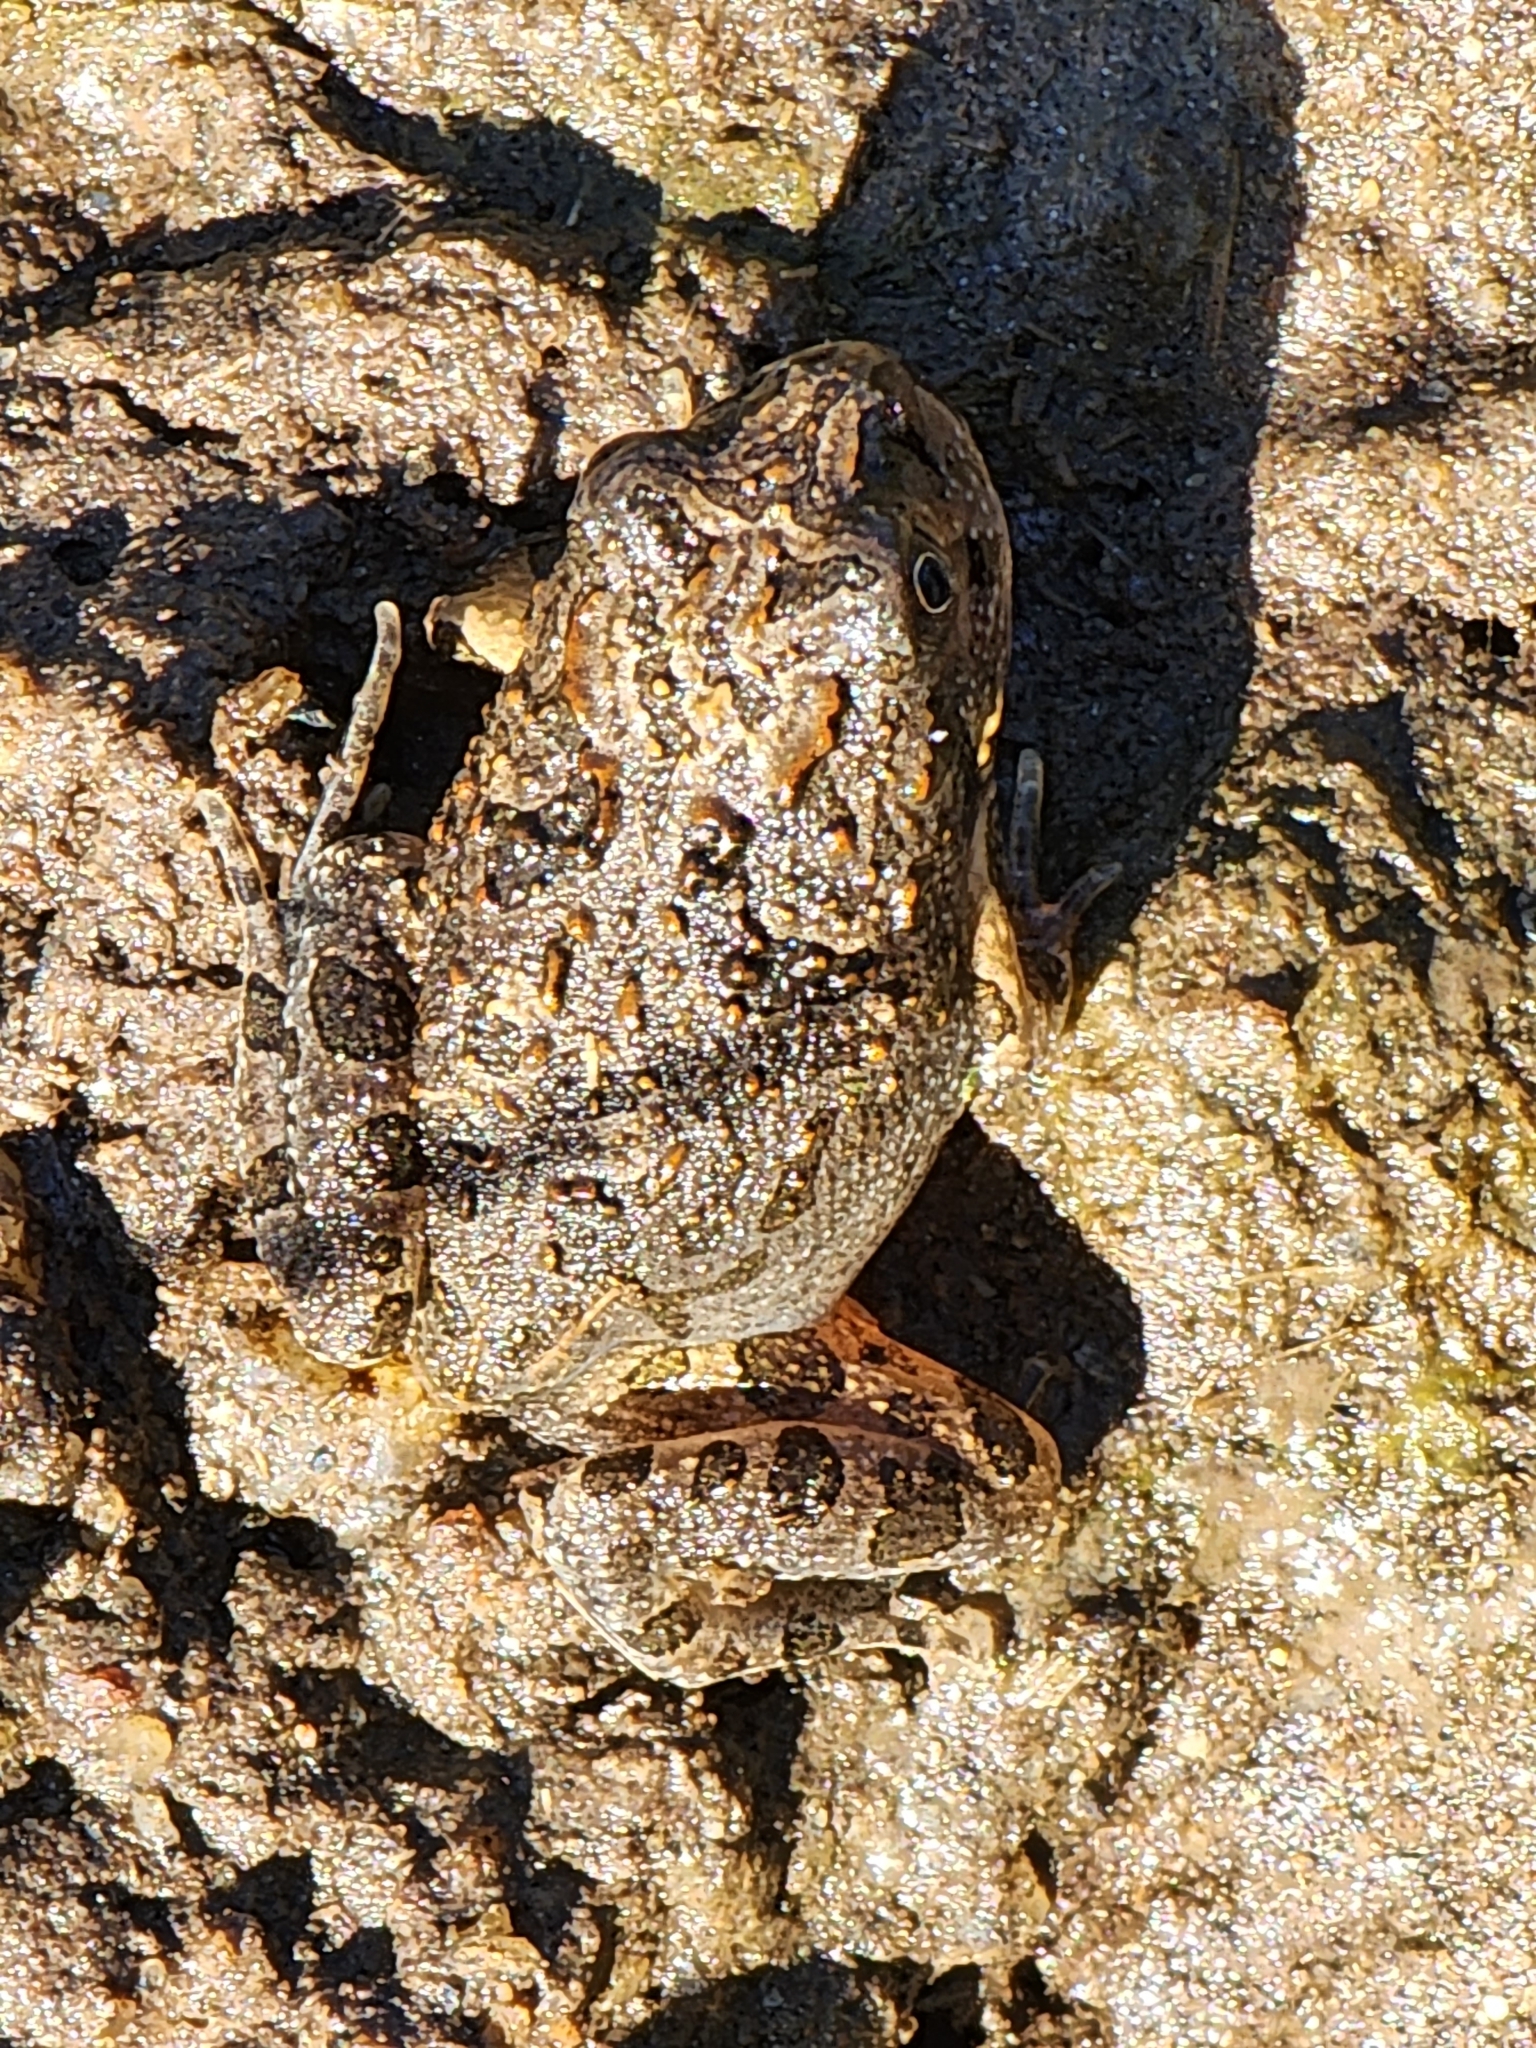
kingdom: Animalia
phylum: Chordata
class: Amphibia
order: Anura
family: Limnodynastidae
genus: Platyplectrum
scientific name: Platyplectrum ornatum
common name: Ornate burrowing frog
